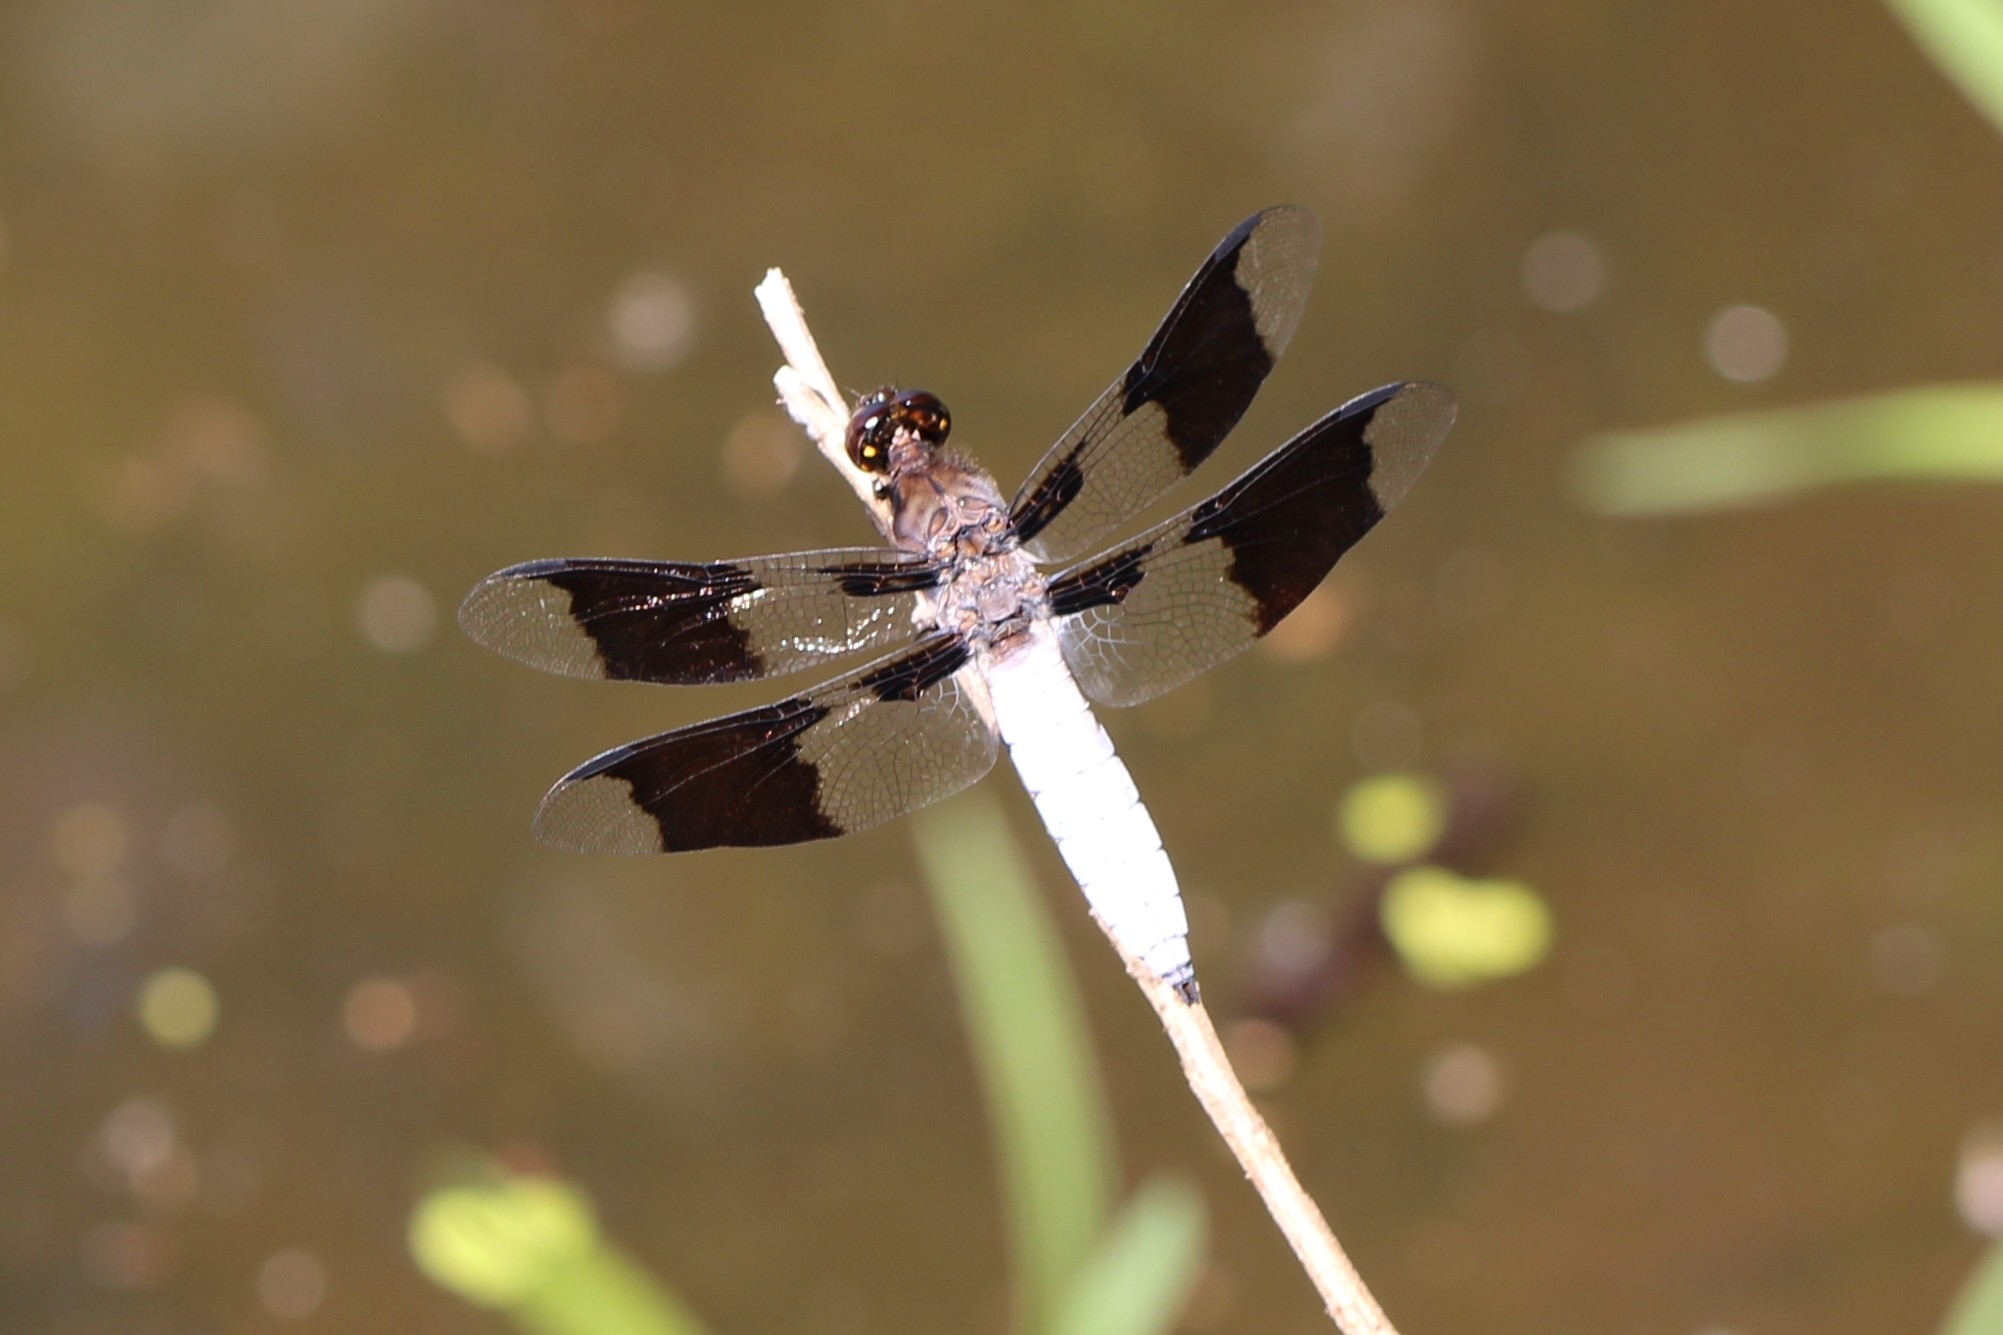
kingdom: Animalia
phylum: Arthropoda
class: Insecta
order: Odonata
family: Libellulidae
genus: Plathemis
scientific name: Plathemis lydia
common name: Common whitetail
